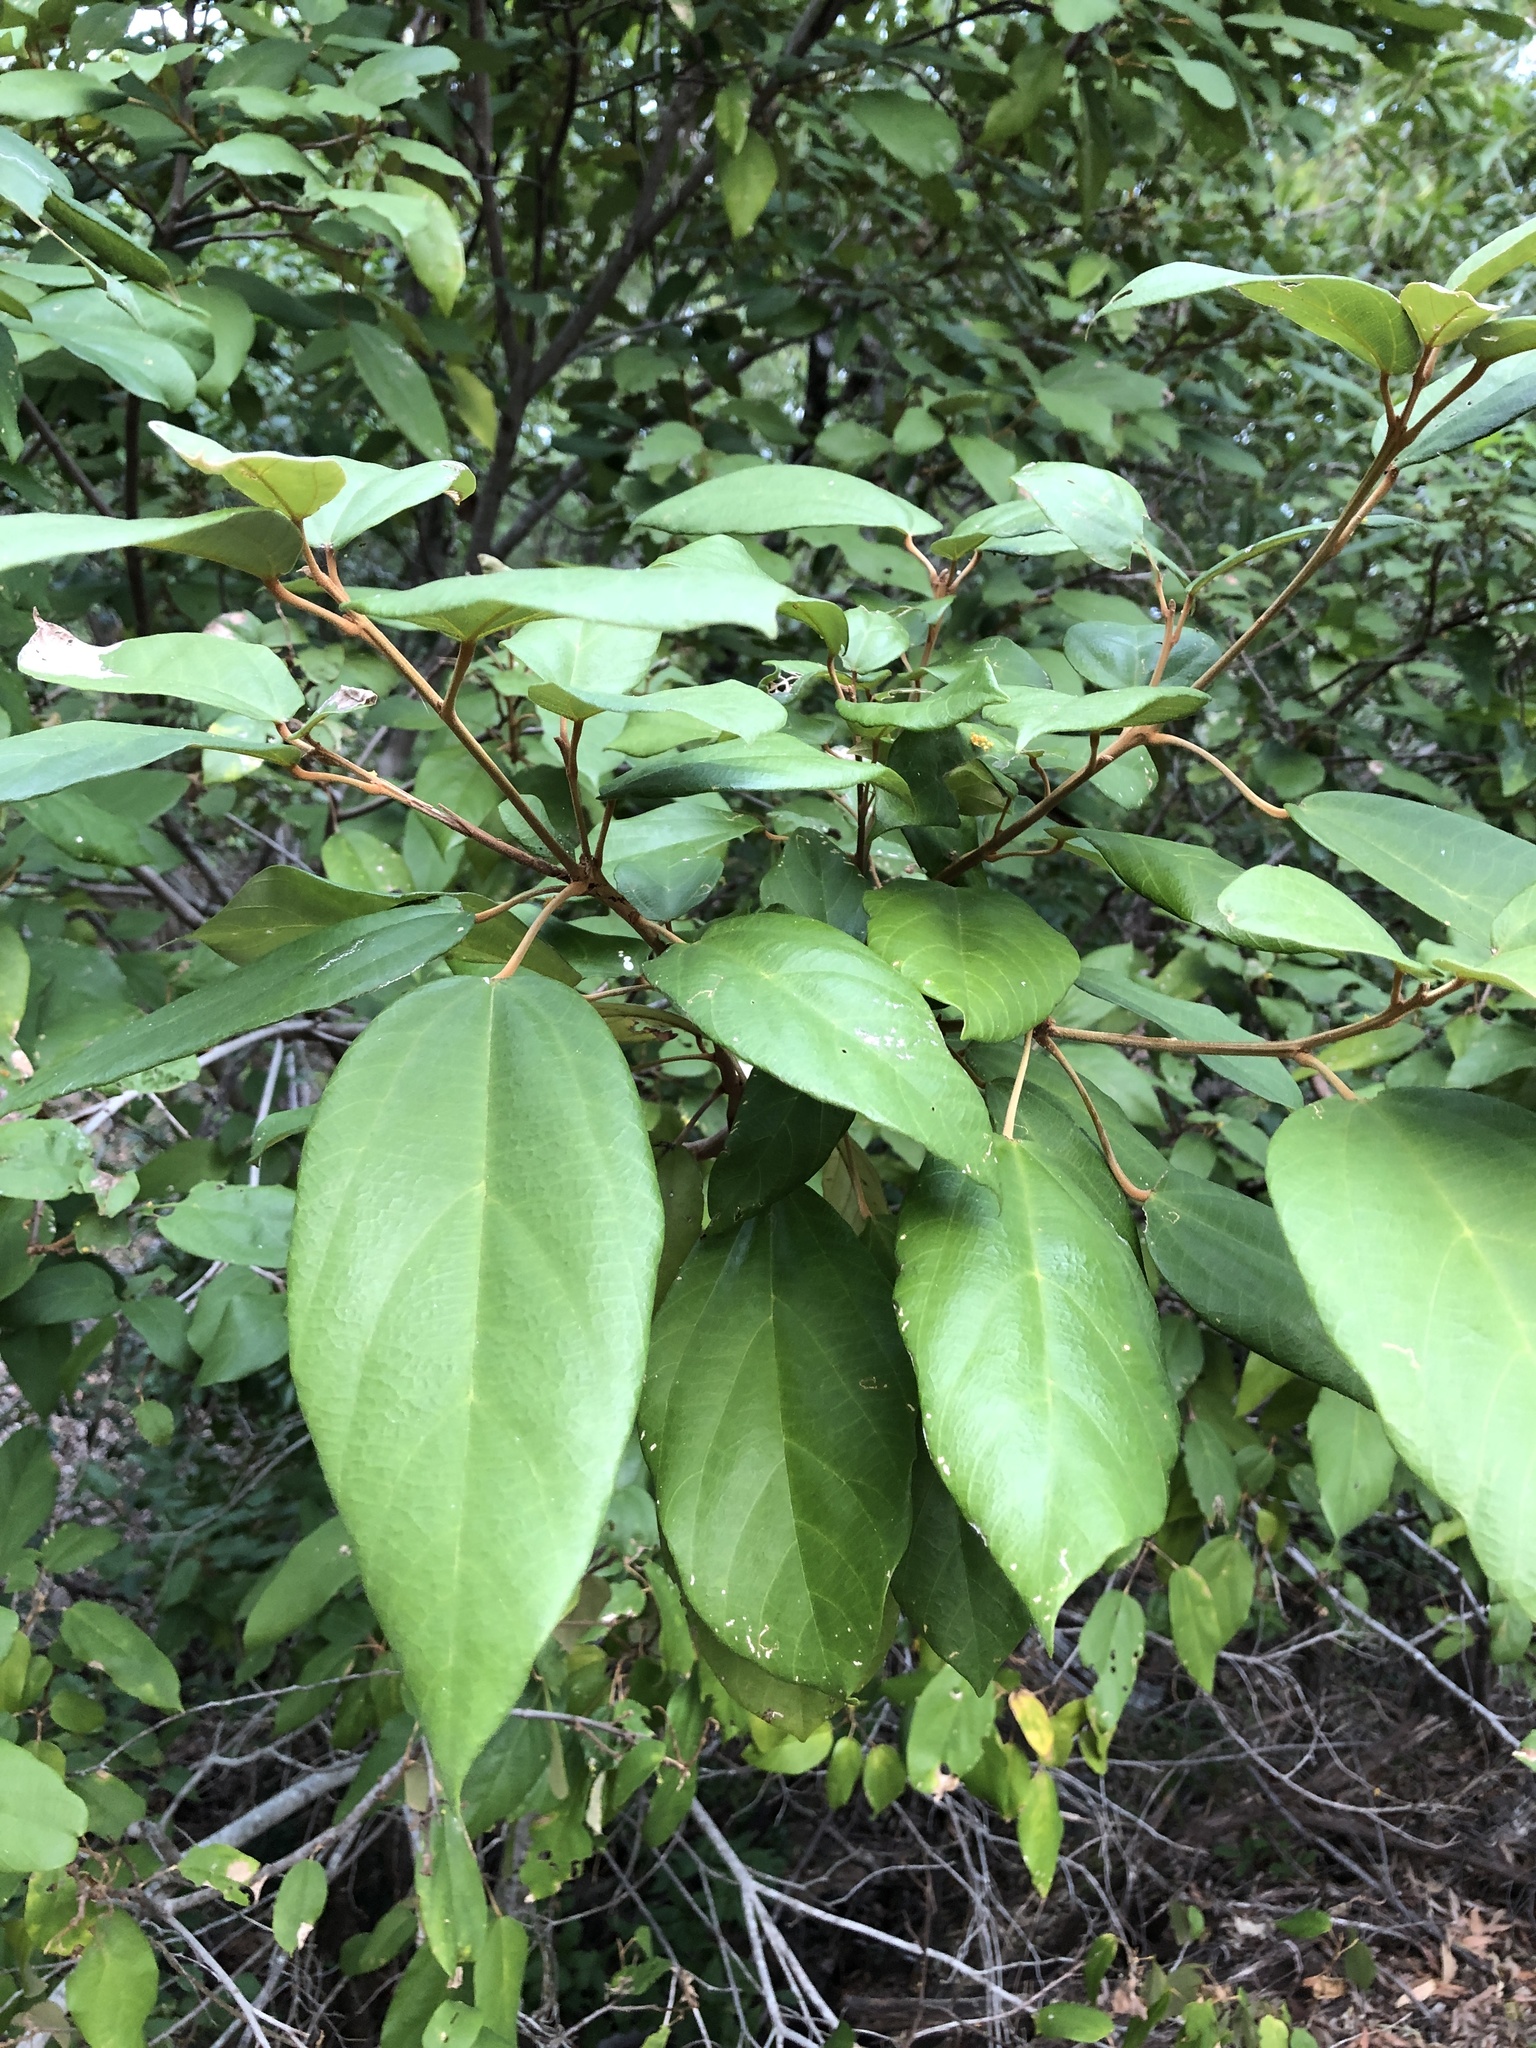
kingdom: Plantae
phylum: Tracheophyta
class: Magnoliopsida
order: Malpighiales
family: Euphorbiaceae
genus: Mallotus
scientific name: Mallotus philippensis
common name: Kamala tree
